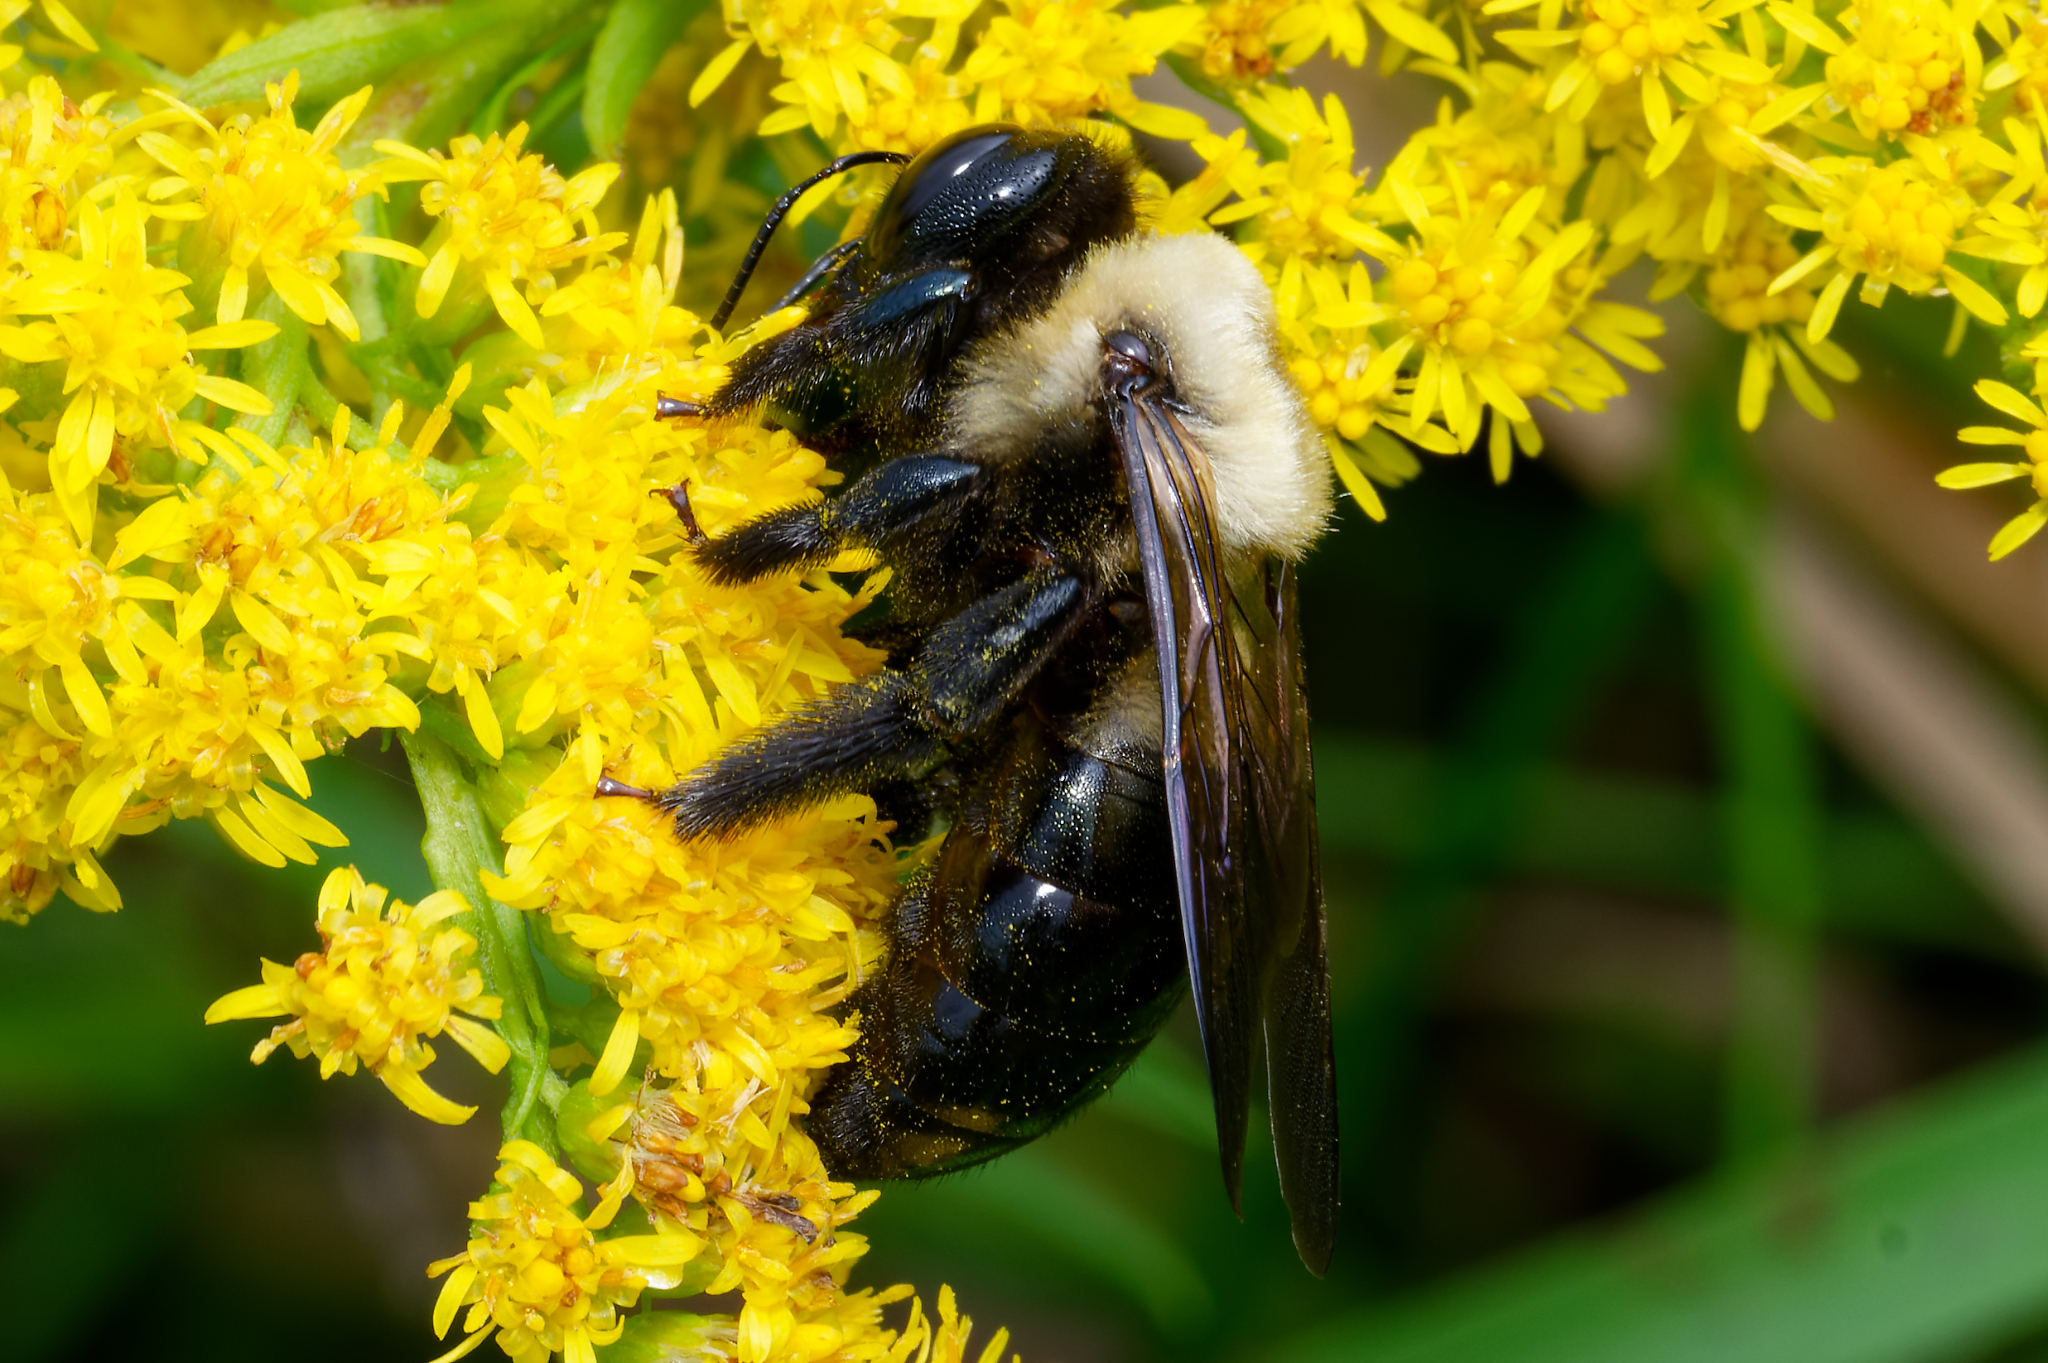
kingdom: Animalia
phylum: Arthropoda
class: Insecta
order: Hymenoptera
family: Apidae
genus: Xylocopa
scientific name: Xylocopa virginica
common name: Carpenter bee
